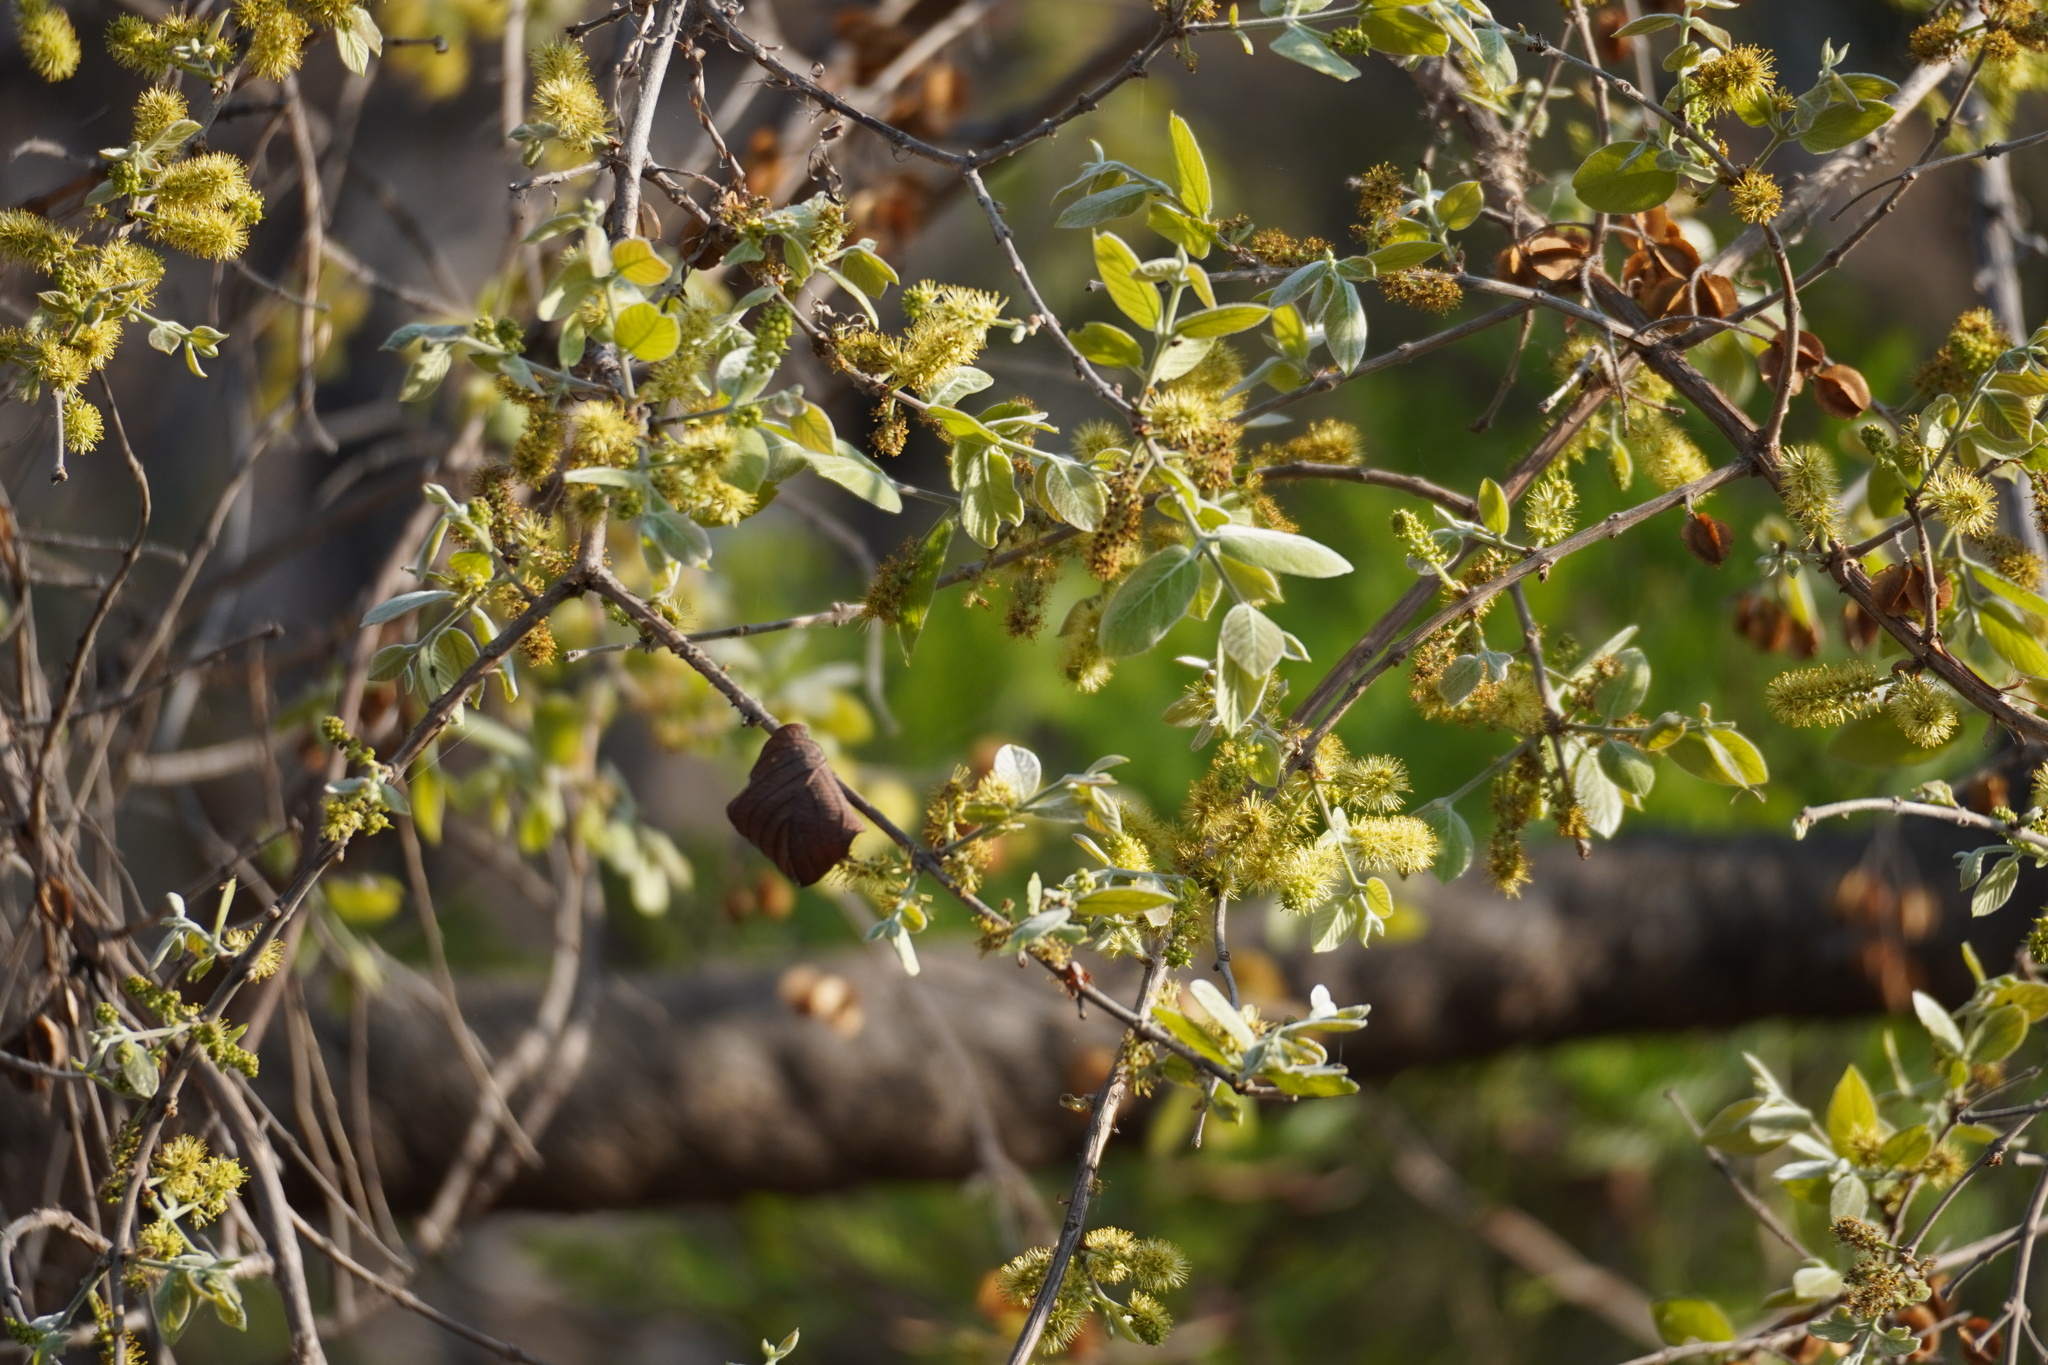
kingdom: Plantae
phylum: Tracheophyta
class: Magnoliopsida
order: Myrtales
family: Combretaceae
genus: Combretum
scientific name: Combretum molle
